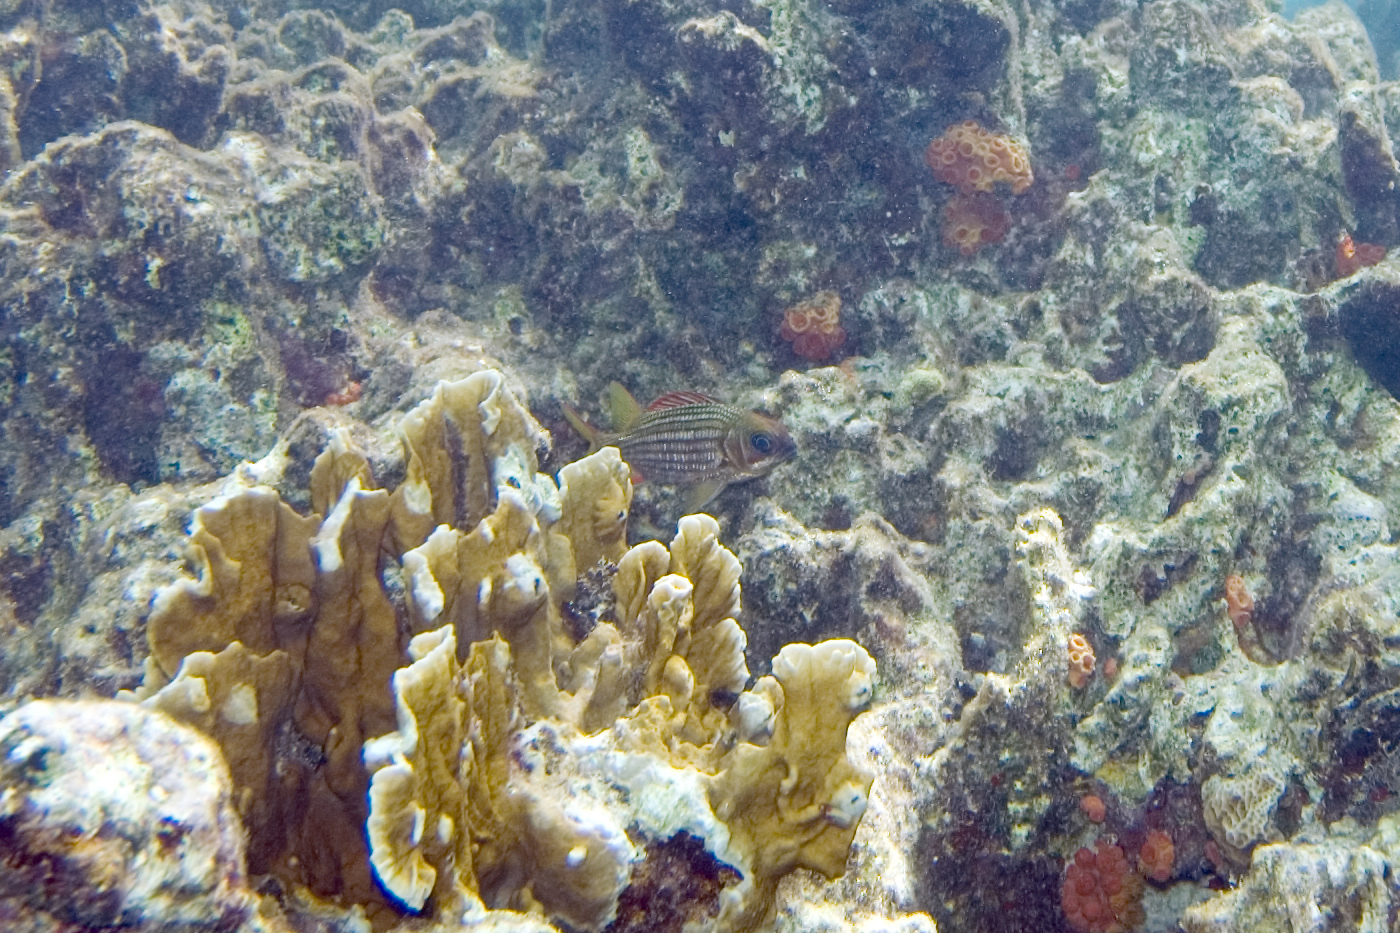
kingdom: Animalia
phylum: Chordata
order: Beryciformes
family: Holocentridae
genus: Neoniphon
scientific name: Neoniphon vexillarium
